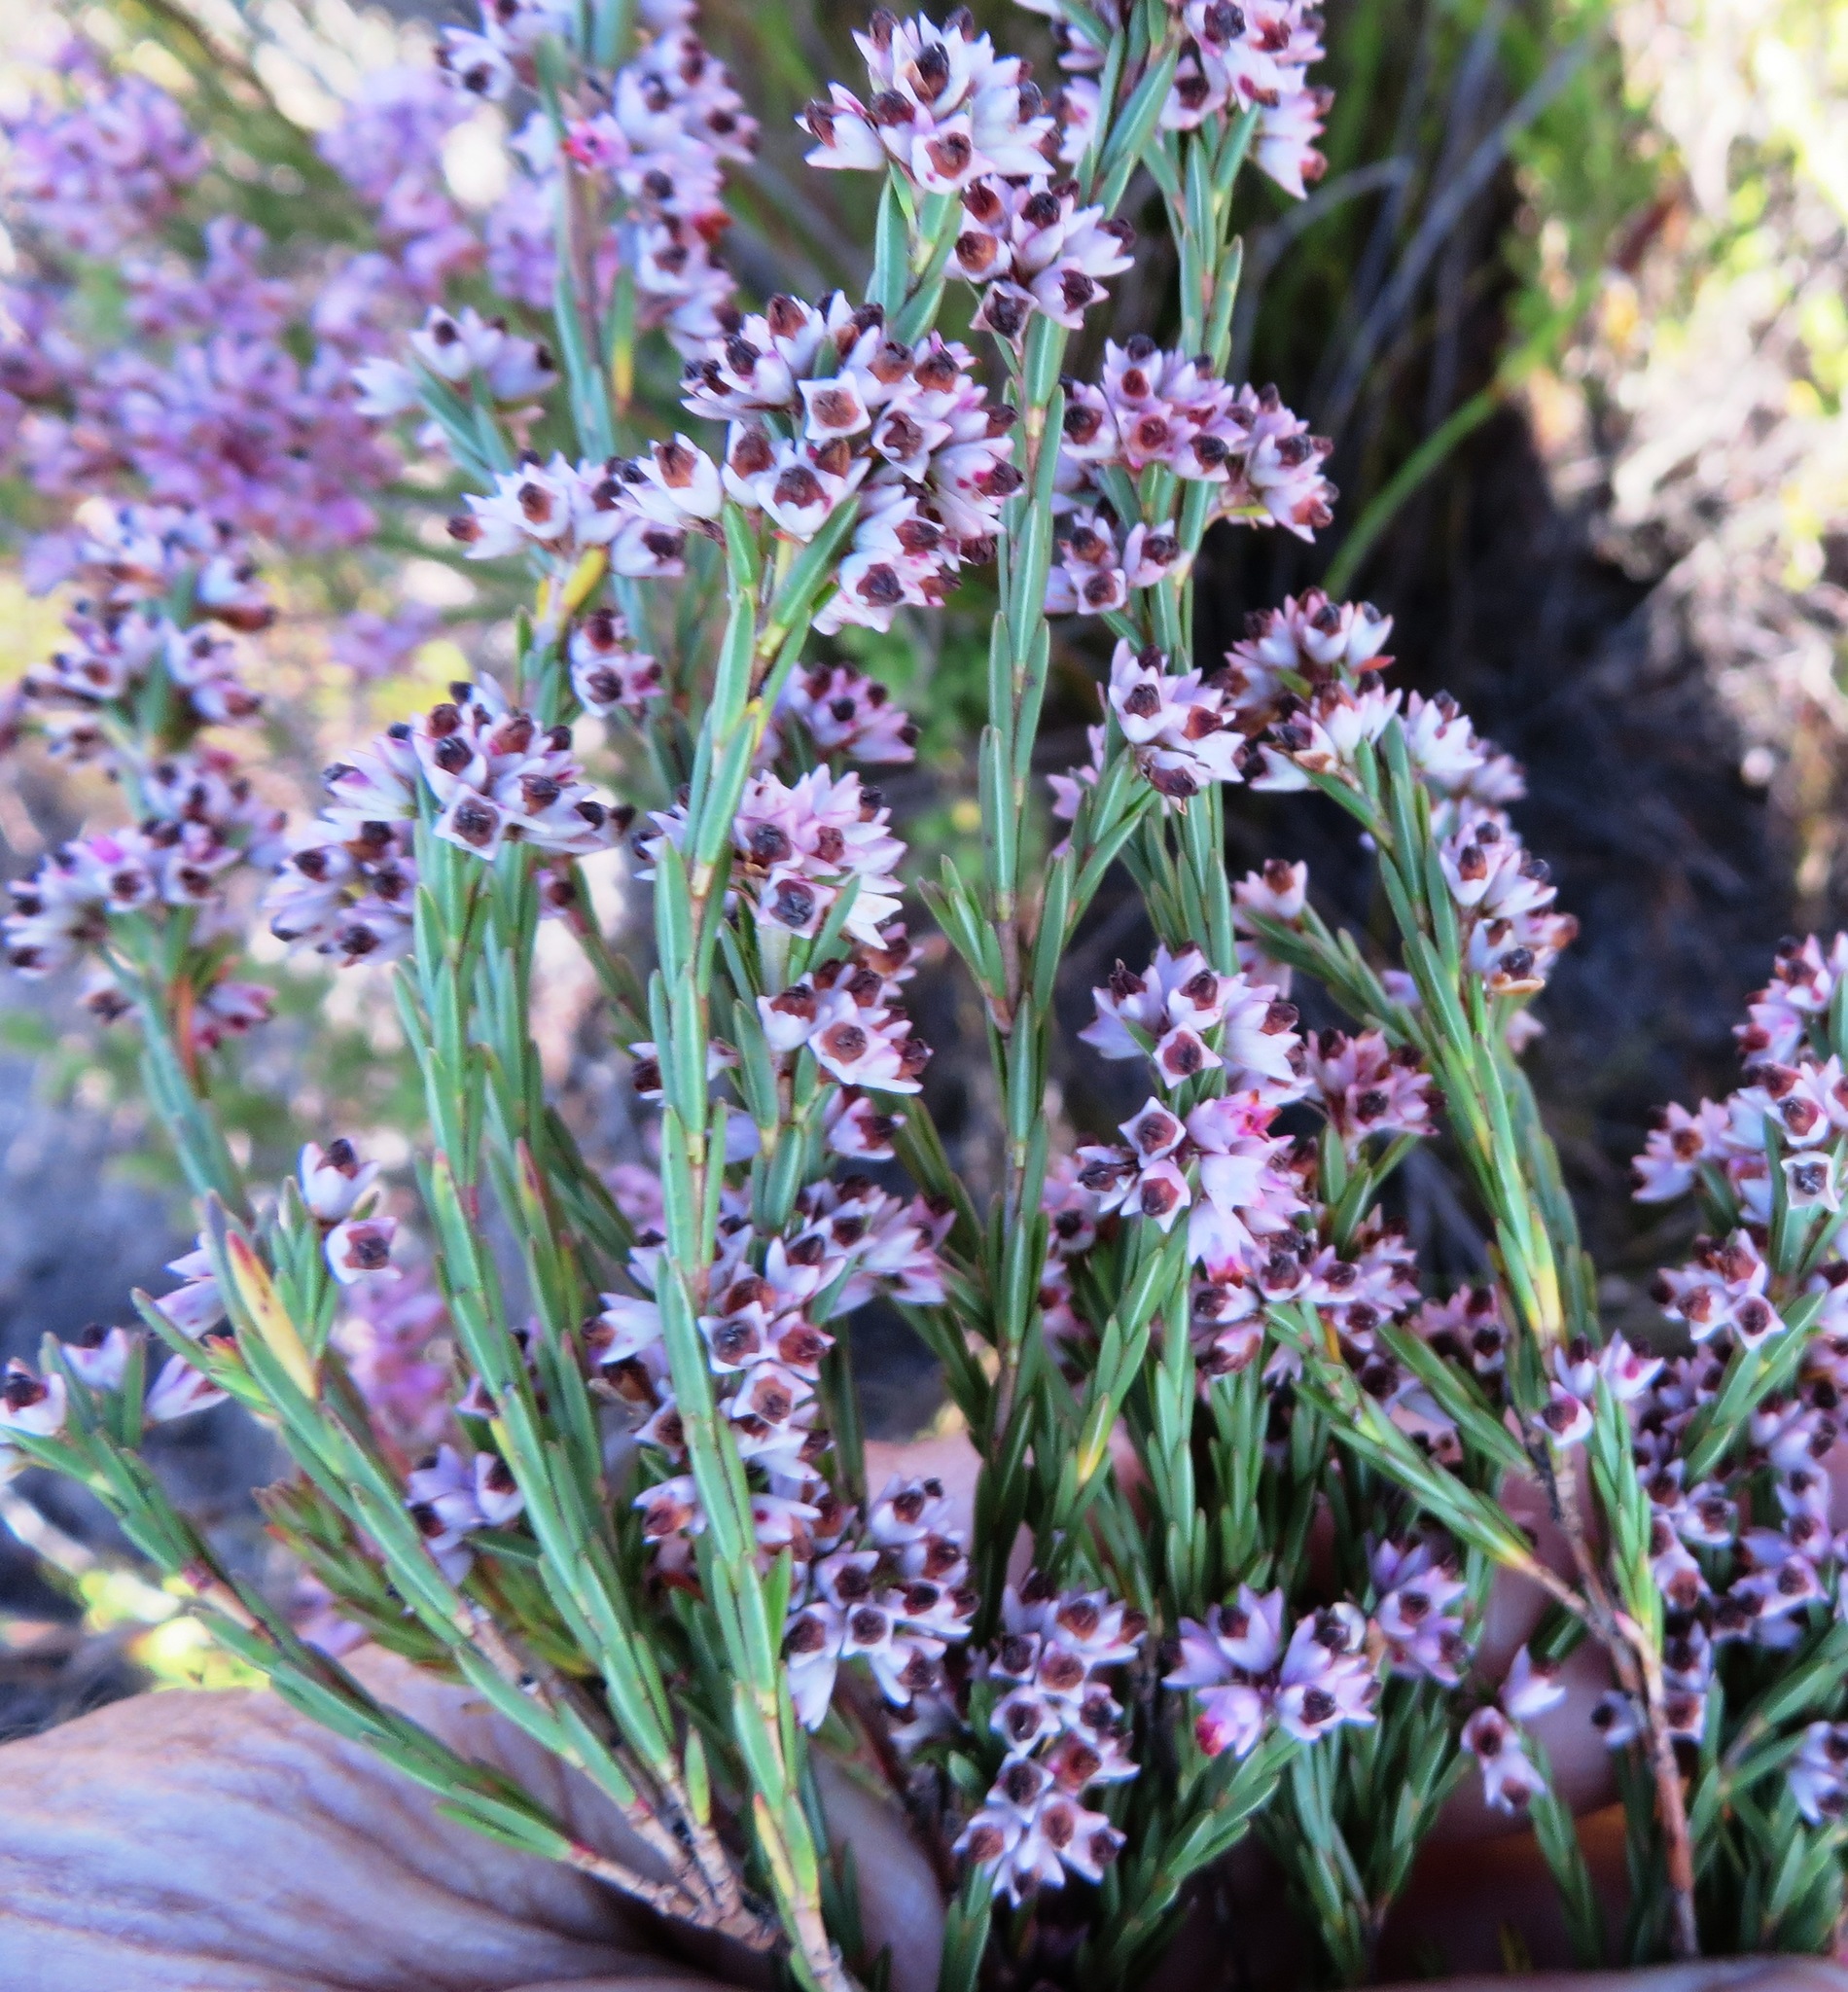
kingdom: Plantae
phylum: Tracheophyta
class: Magnoliopsida
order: Ericales
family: Ericaceae
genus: Erica
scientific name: Erica articularis
